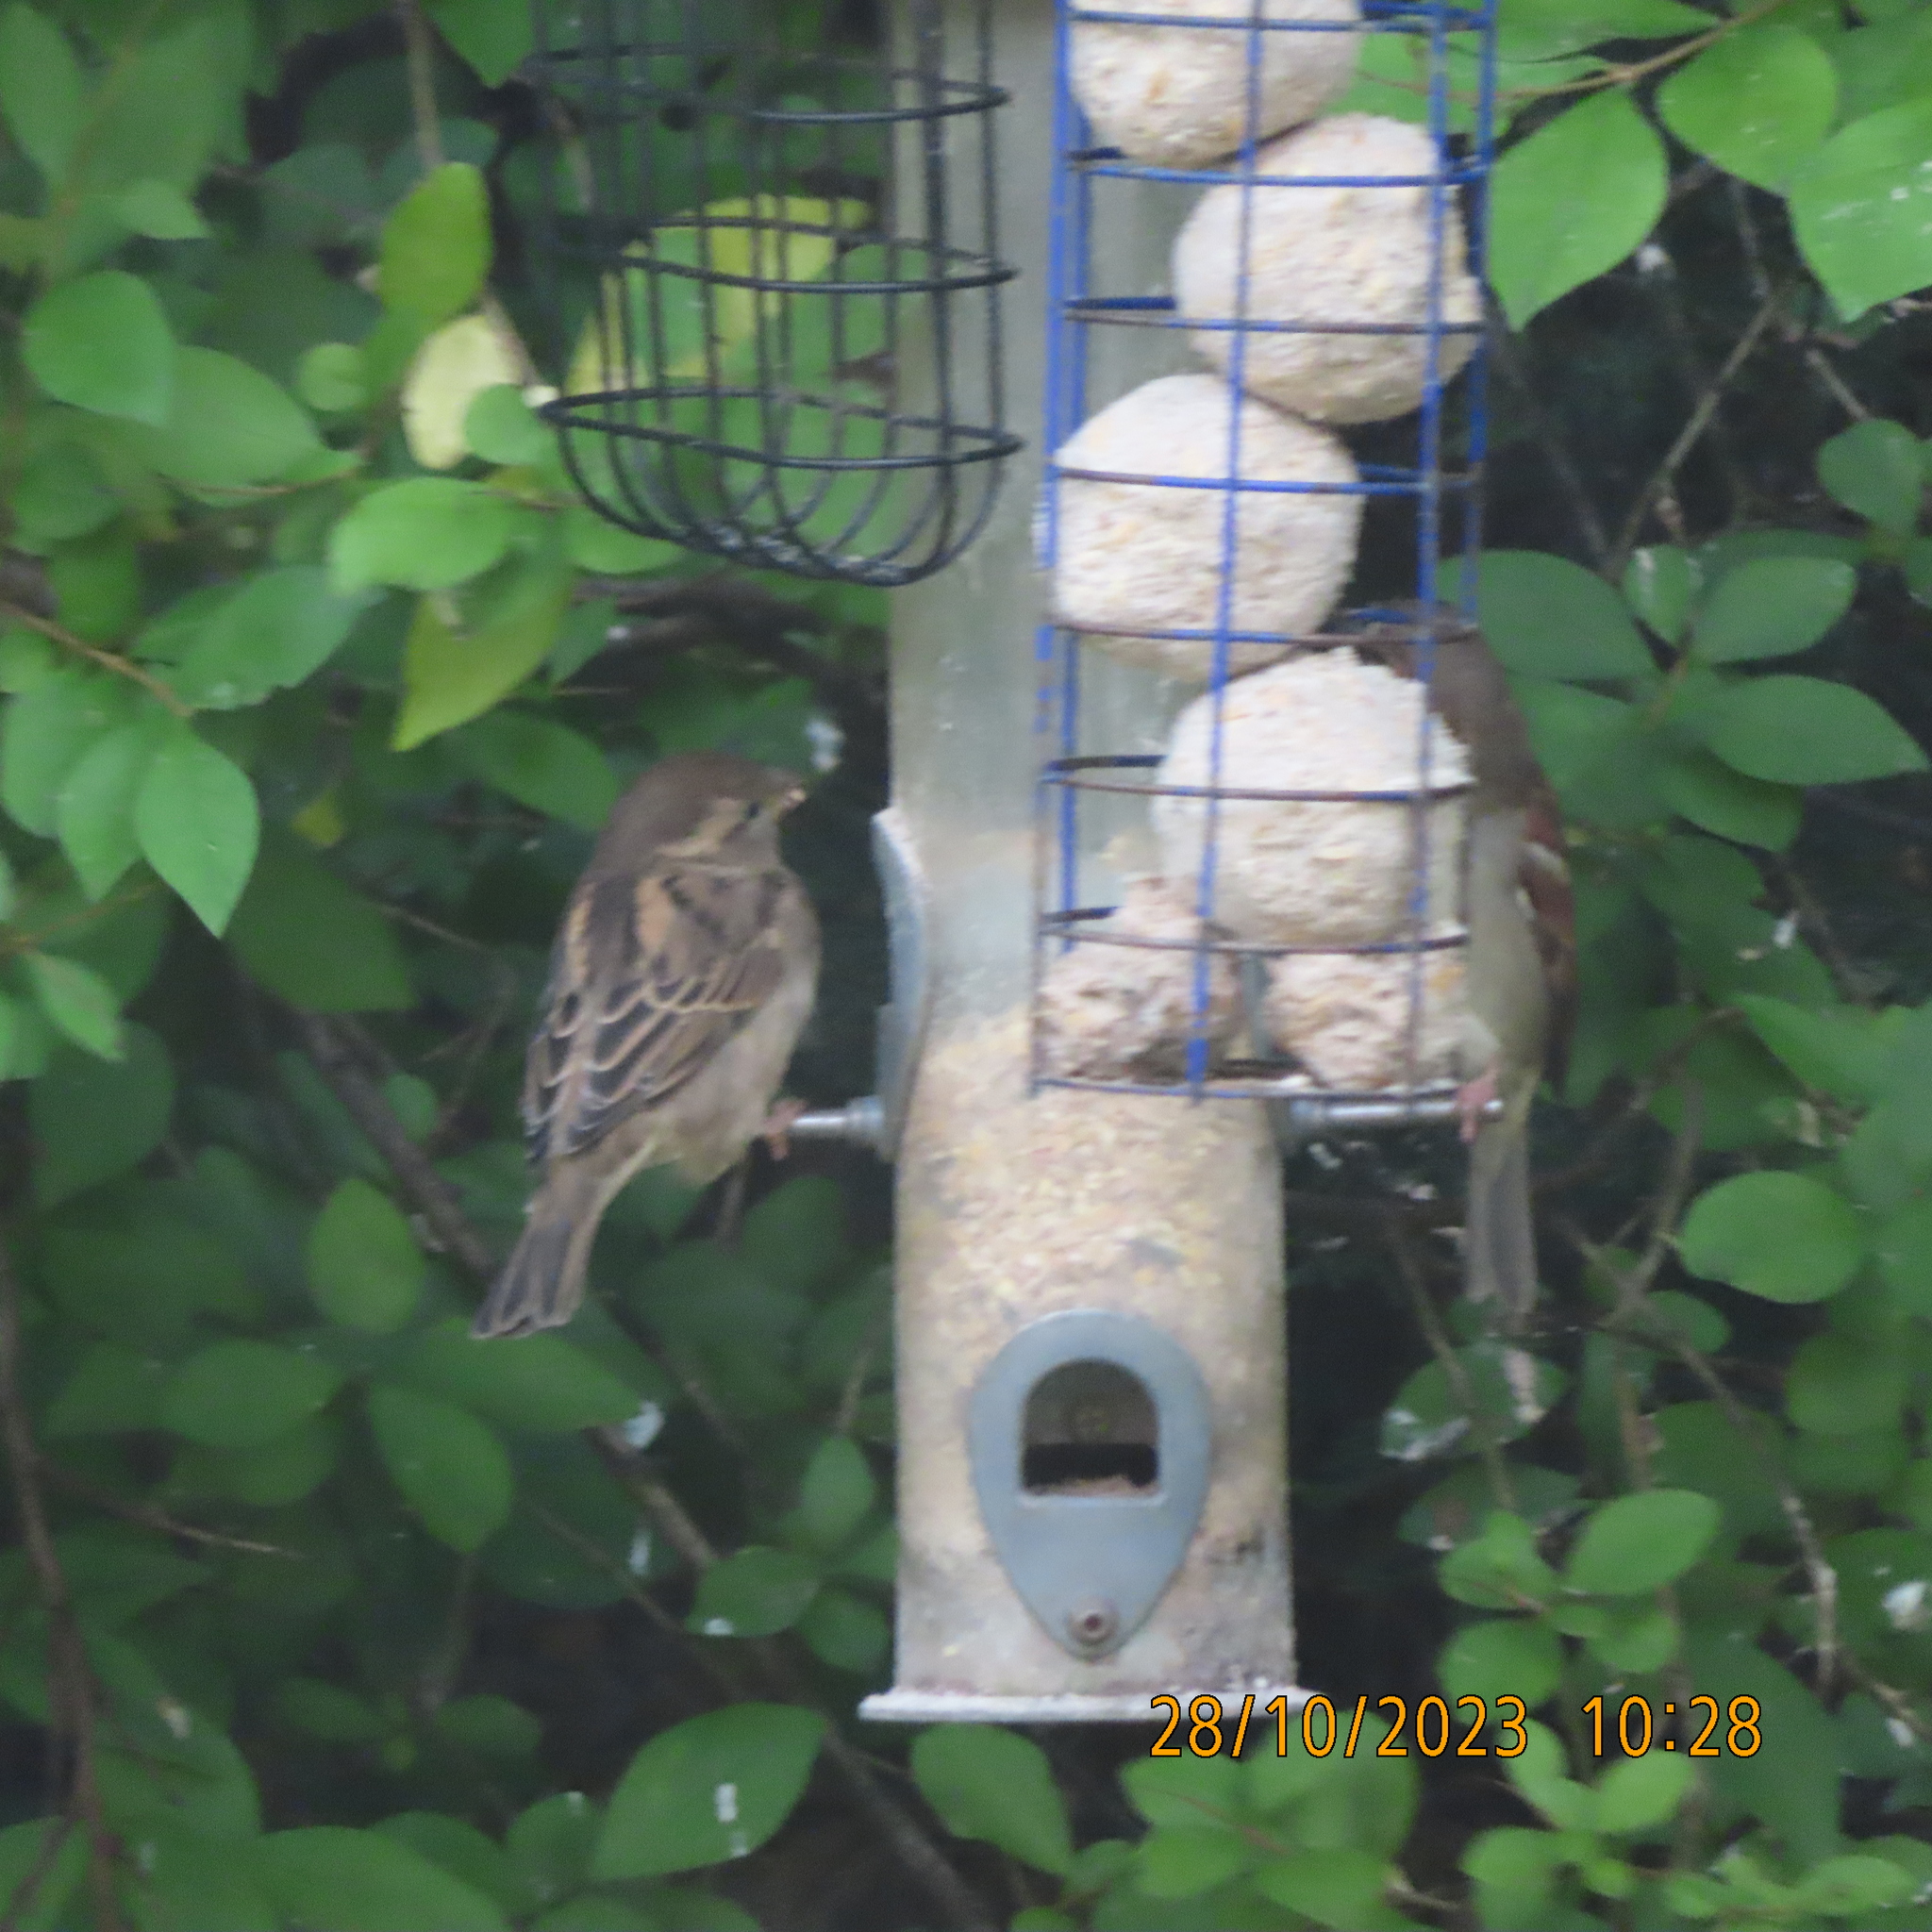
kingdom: Animalia
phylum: Chordata
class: Aves
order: Passeriformes
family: Passeridae
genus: Passer
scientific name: Passer domesticus
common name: House sparrow
